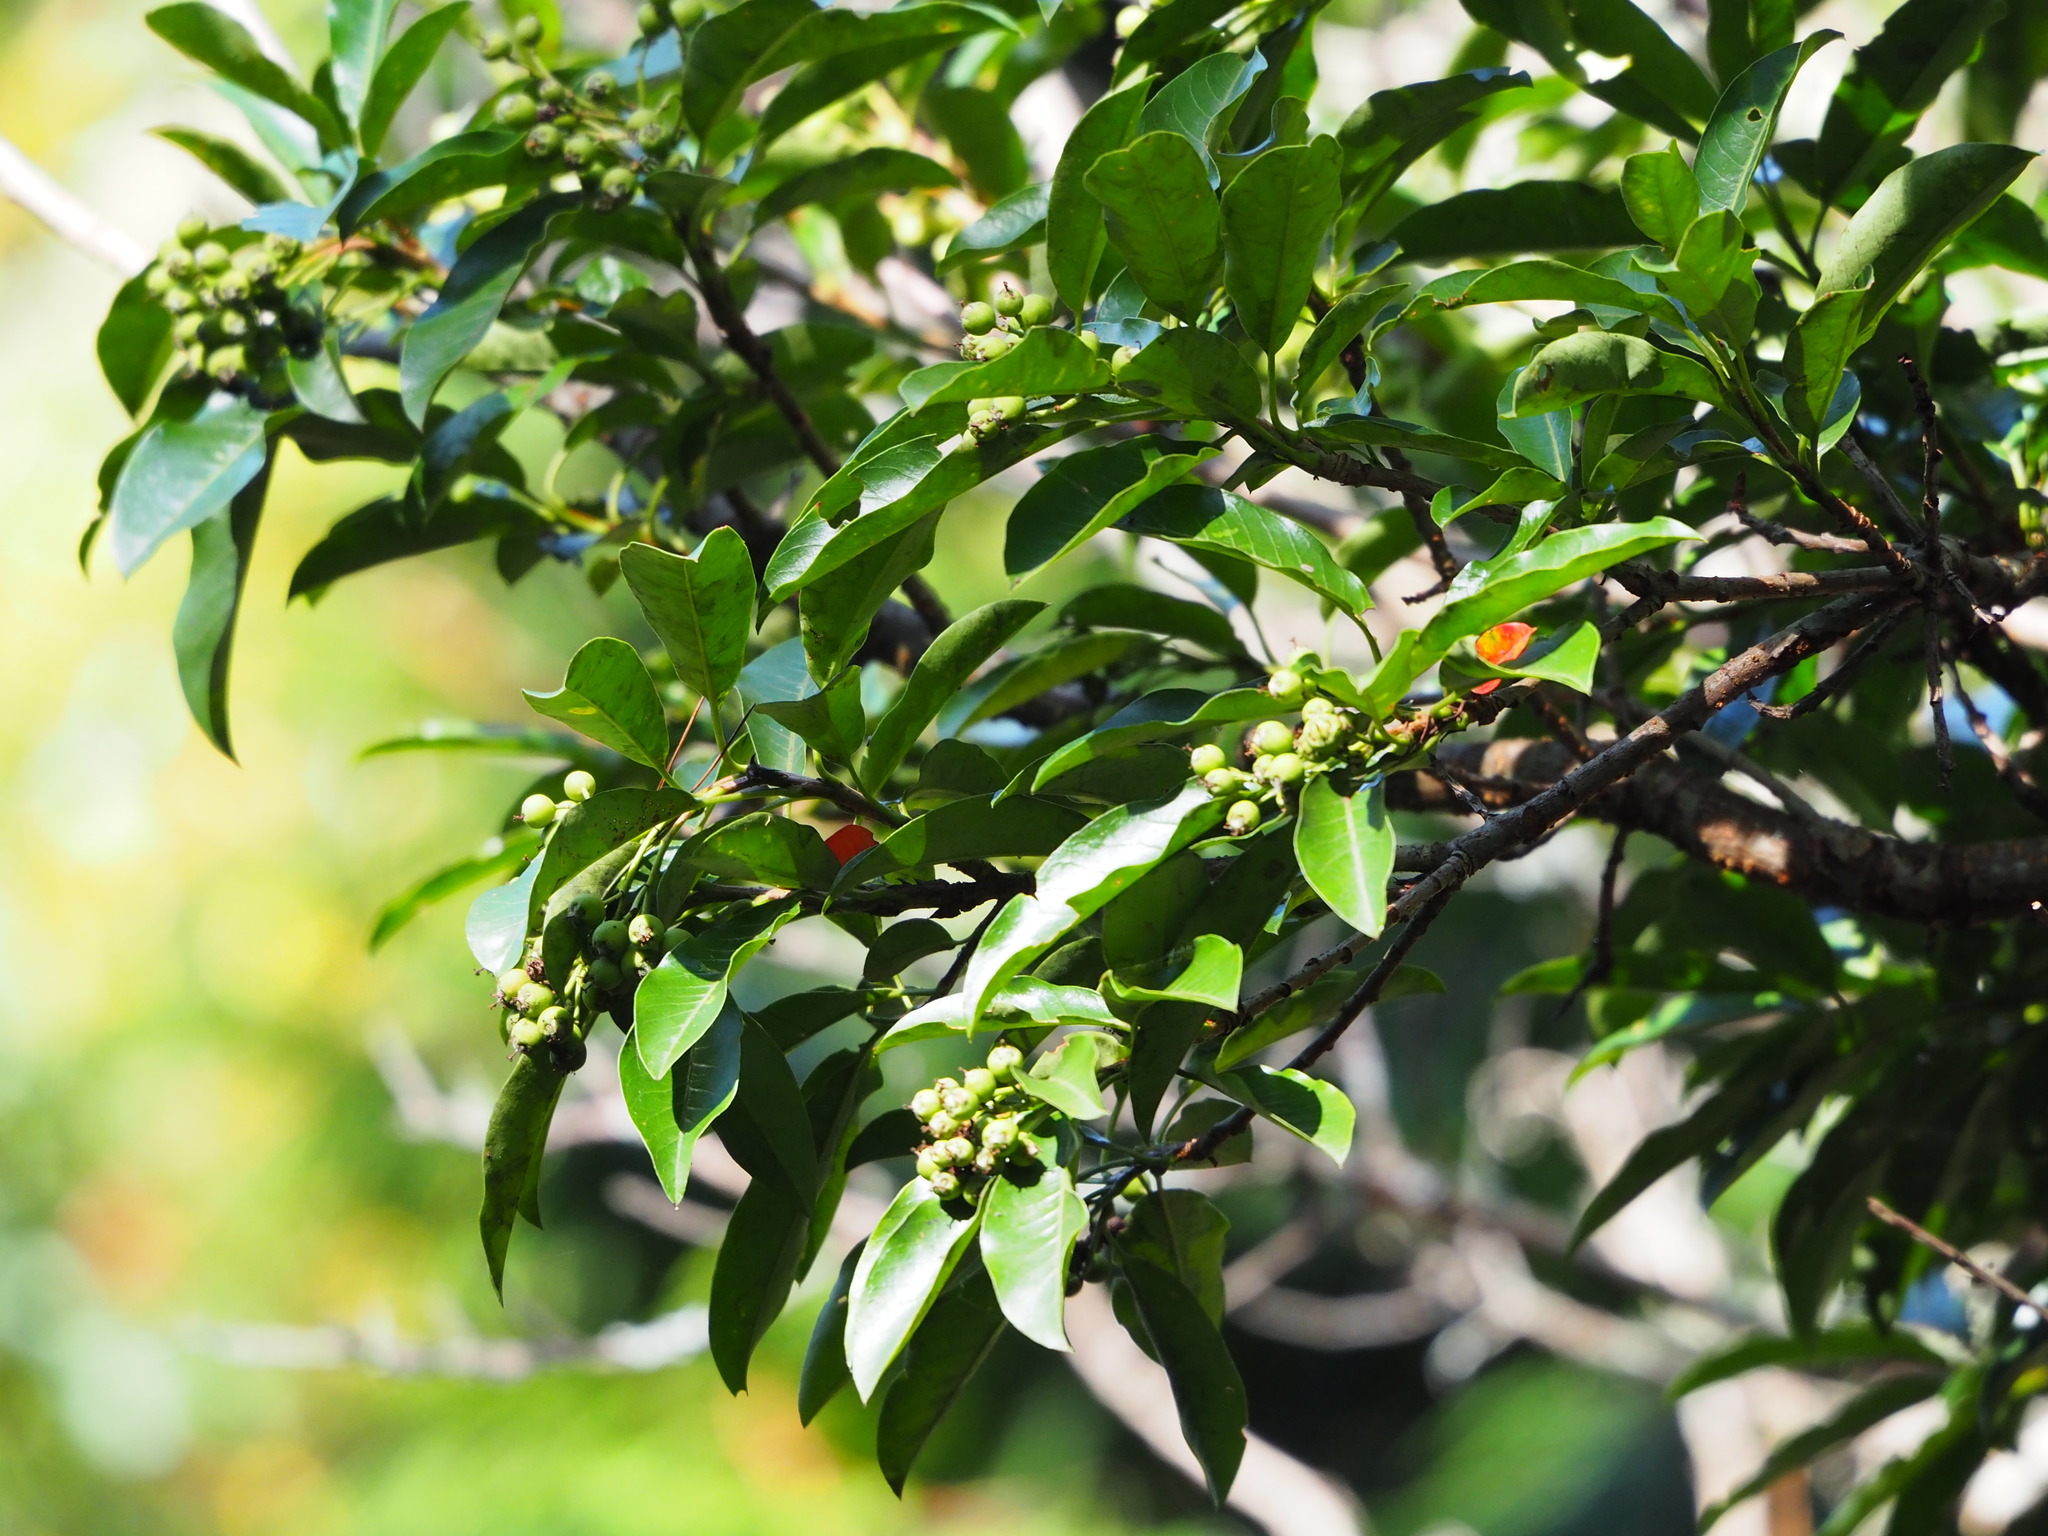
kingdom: Plantae
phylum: Tracheophyta
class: Magnoliopsida
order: Rosales
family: Rosaceae
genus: Stranvaesia
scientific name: Stranvaesia davidiana
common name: Chinese photinia
